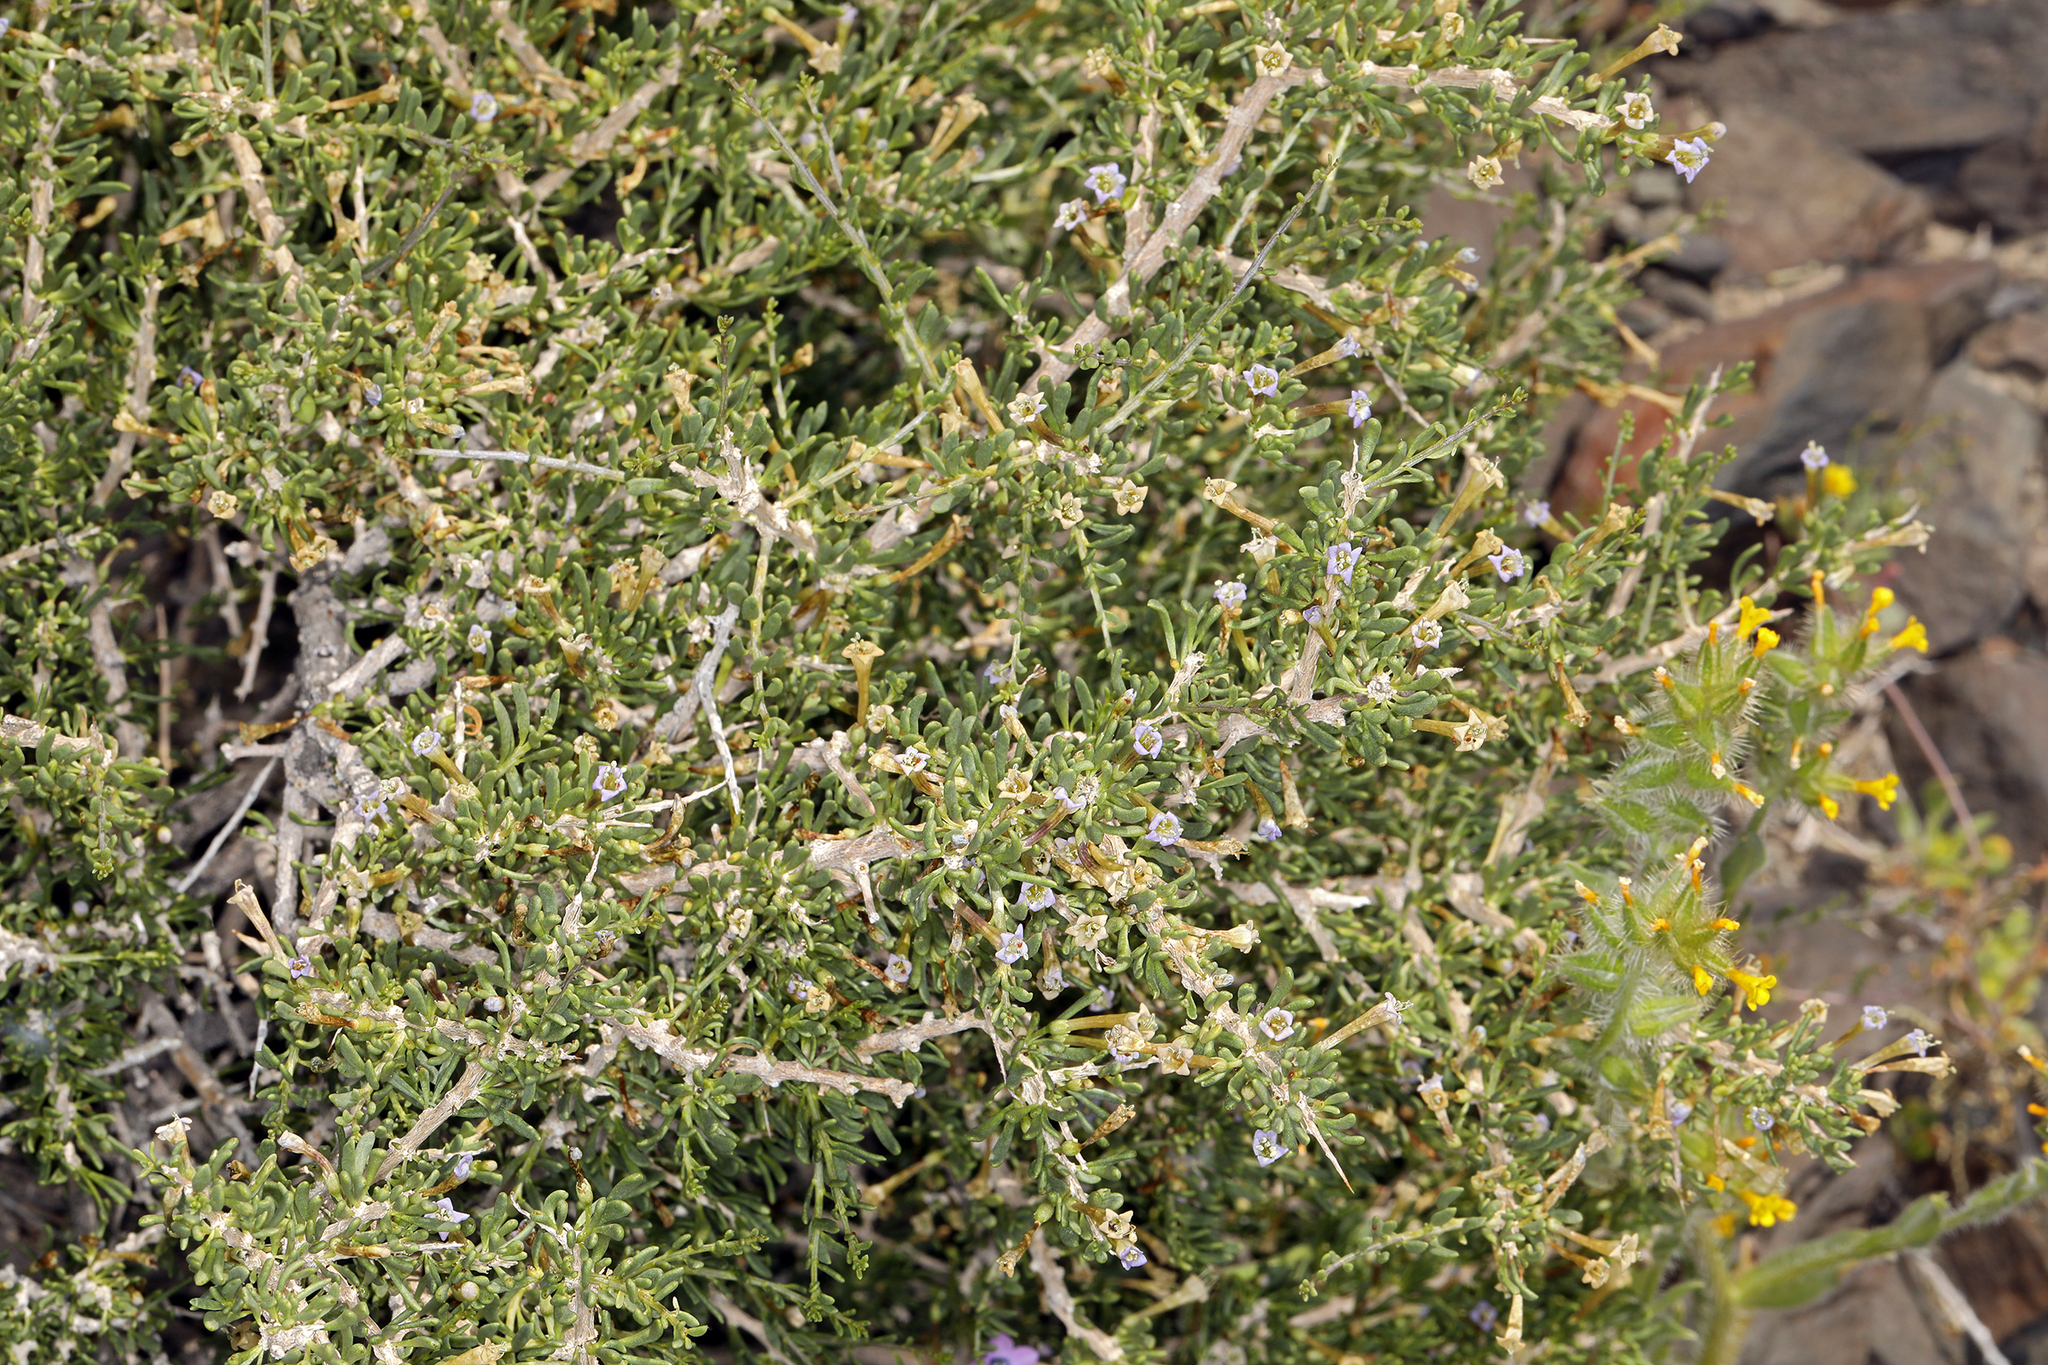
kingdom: Plantae
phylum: Tracheophyta
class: Magnoliopsida
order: Solanales
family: Solanaceae
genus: Lycium
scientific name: Lycium andersonii
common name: Water-jacket
